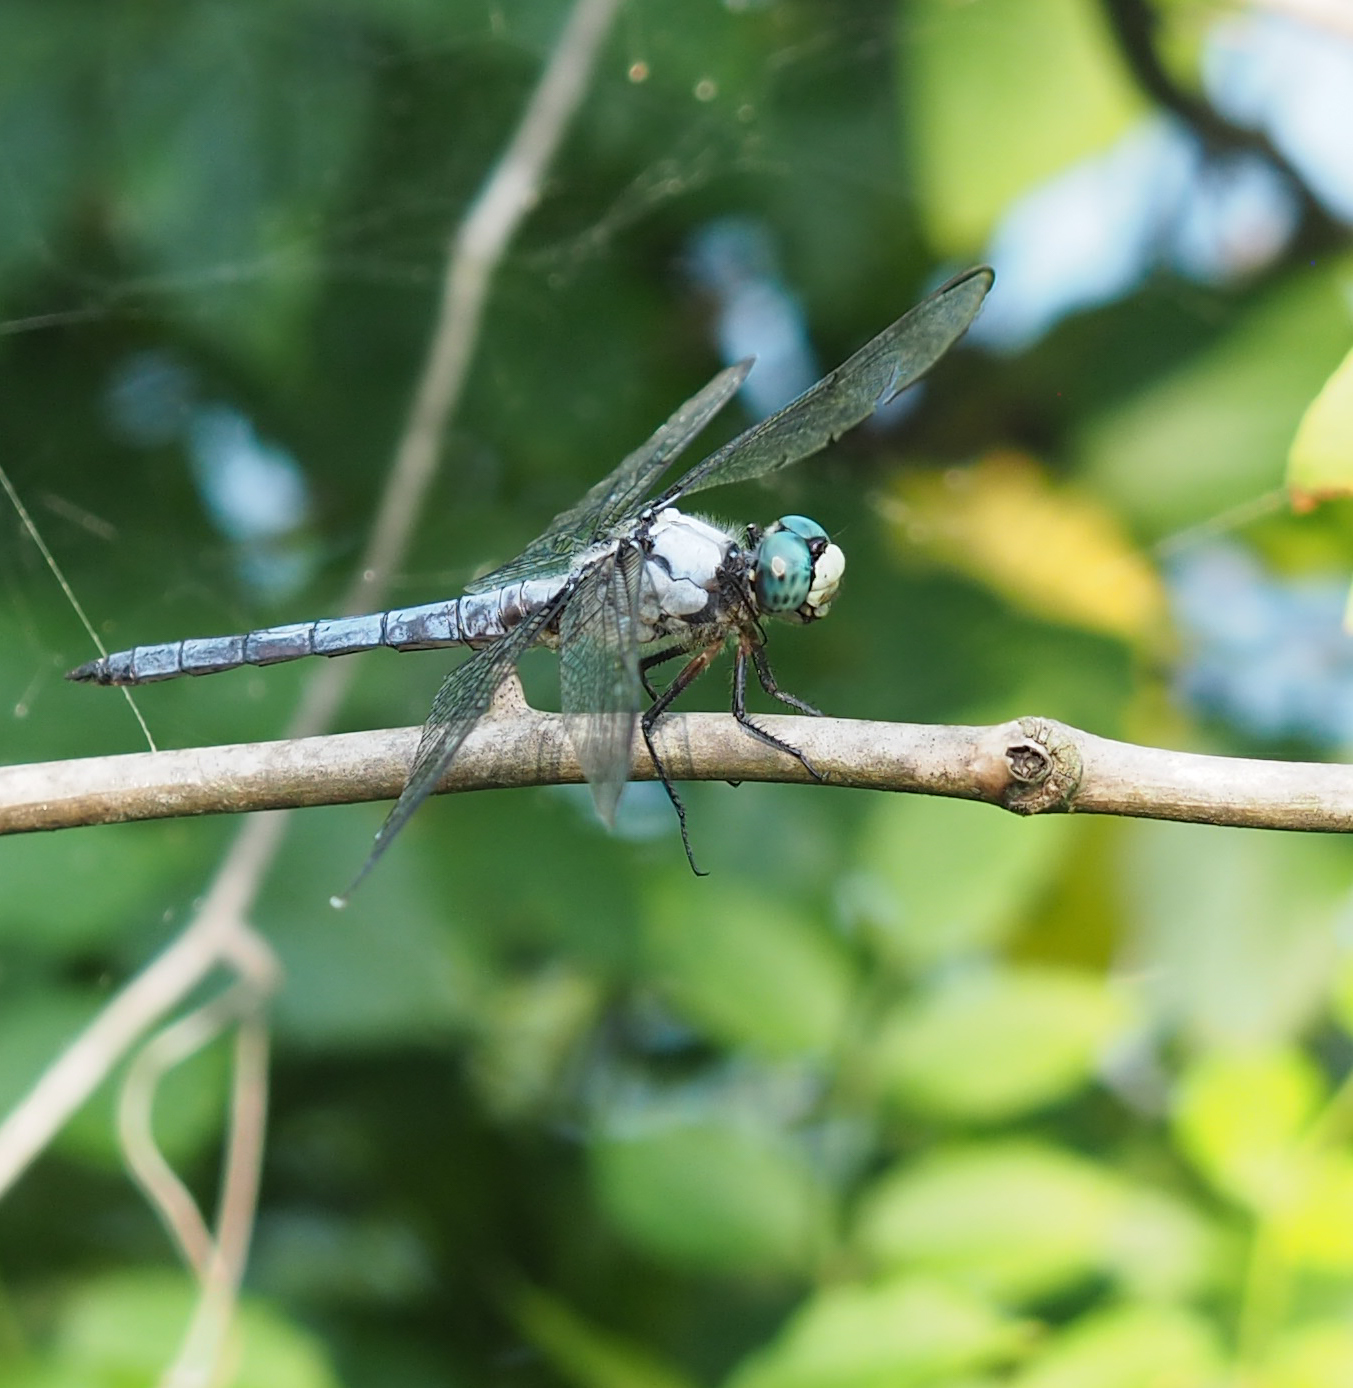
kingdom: Animalia
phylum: Arthropoda
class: Insecta
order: Odonata
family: Libellulidae
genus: Libellula
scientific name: Libellula vibrans
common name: Great blue skimmer
